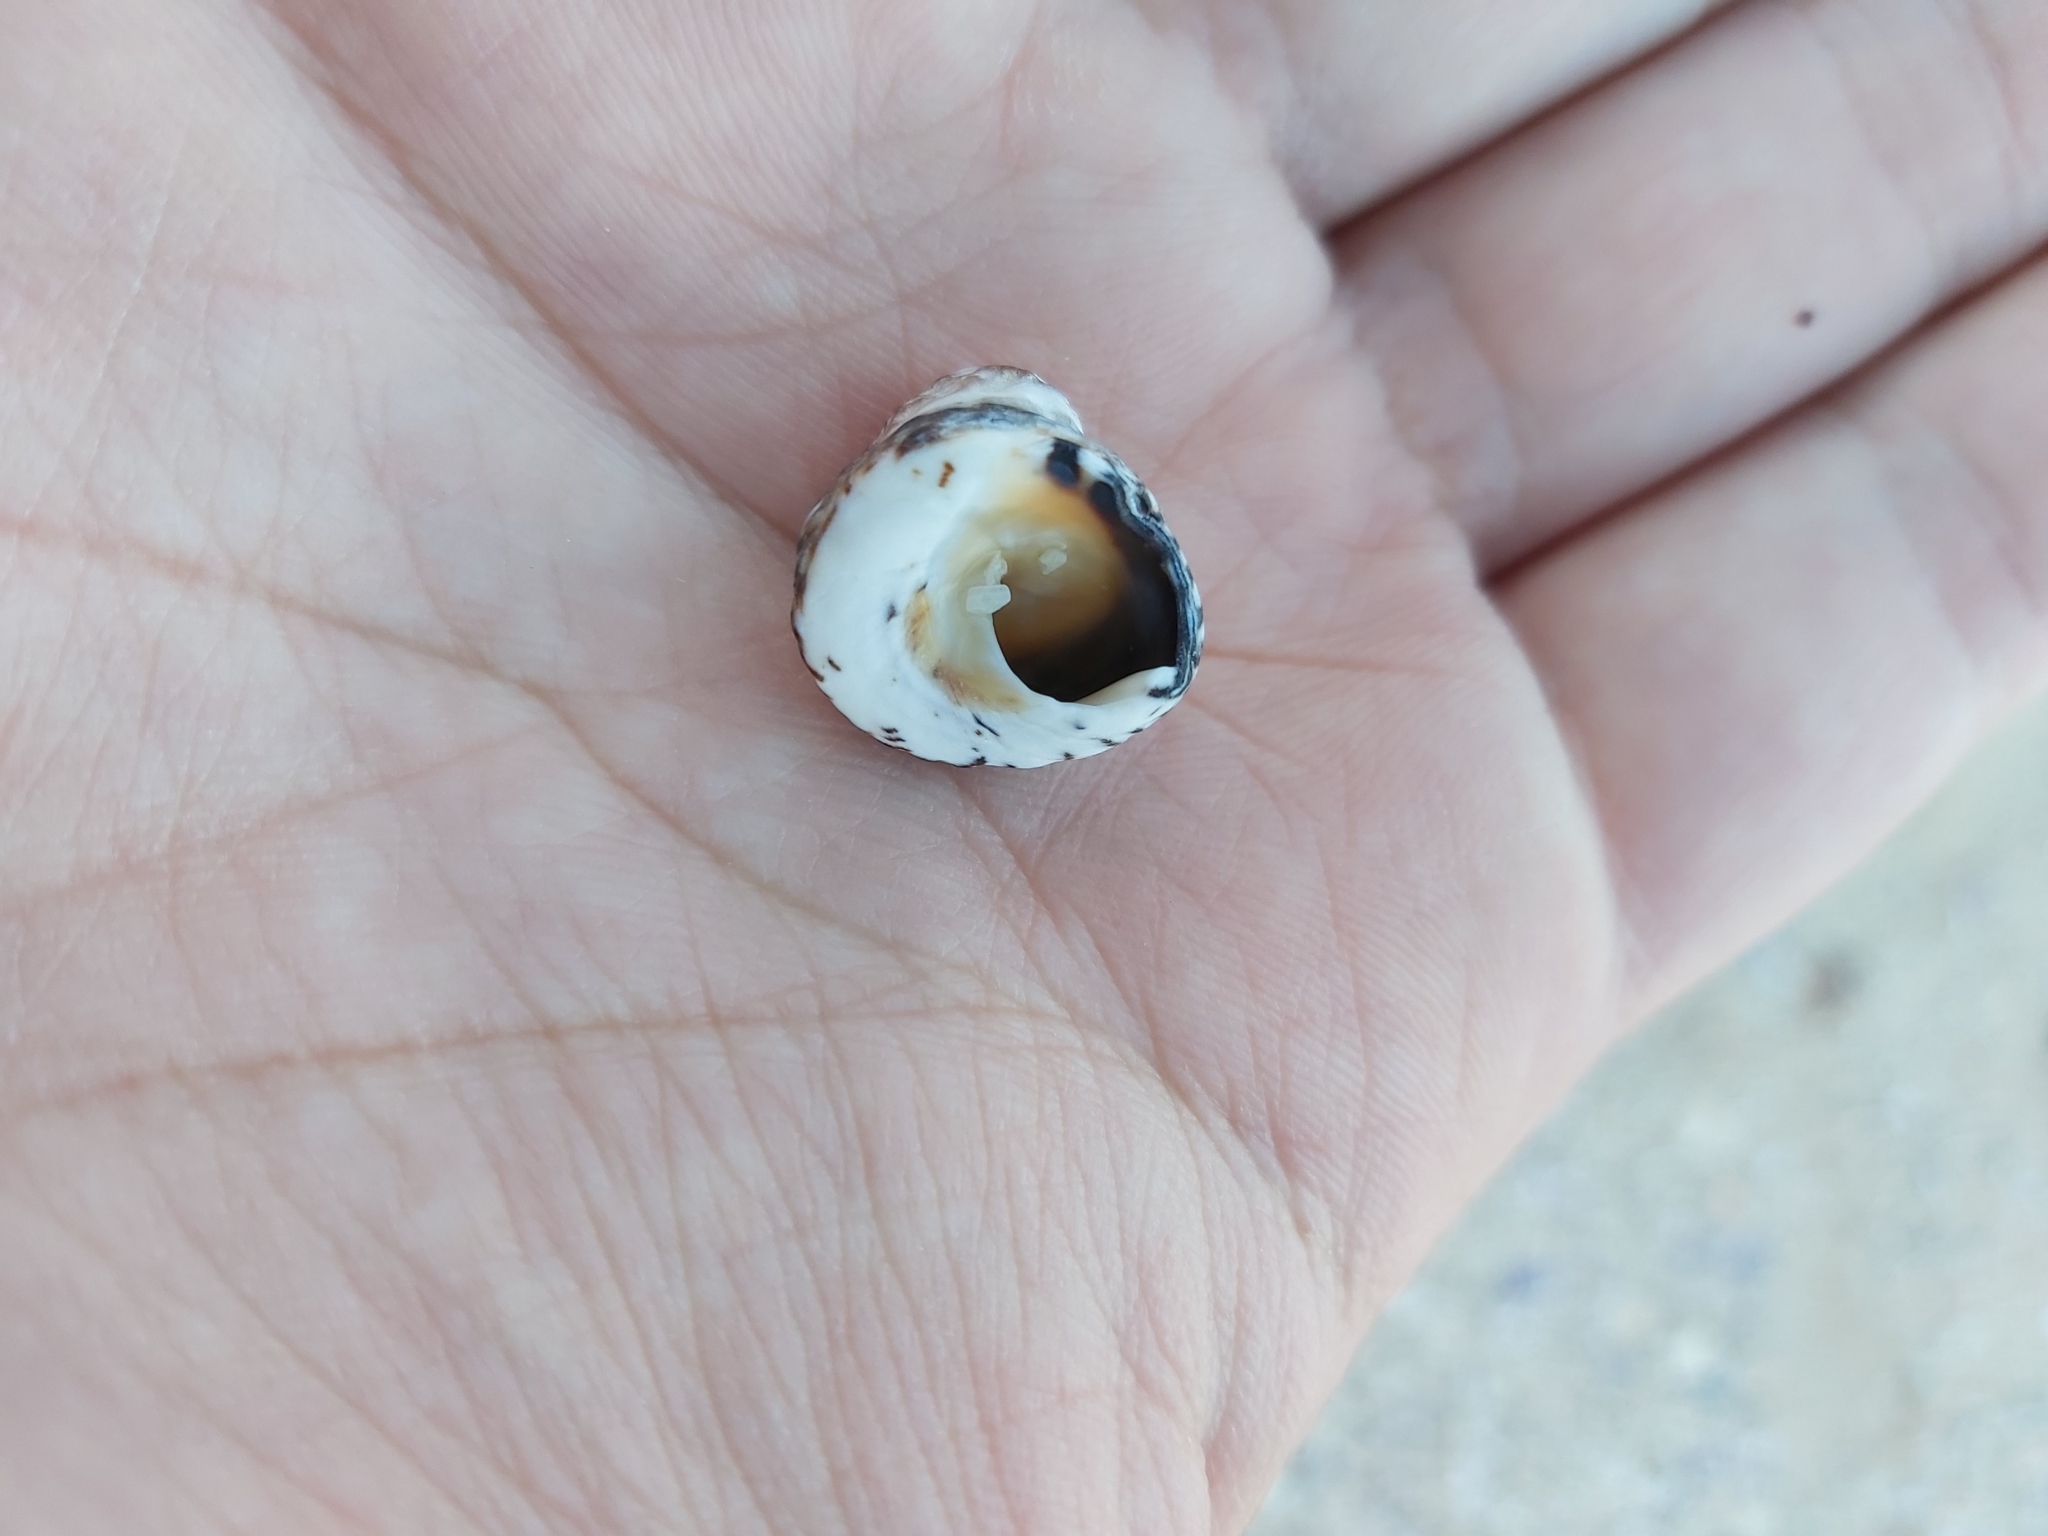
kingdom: Animalia
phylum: Mollusca
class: Gastropoda
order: Littorinimorpha
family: Littorinidae
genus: Bembicium
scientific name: Bembicium nanum
